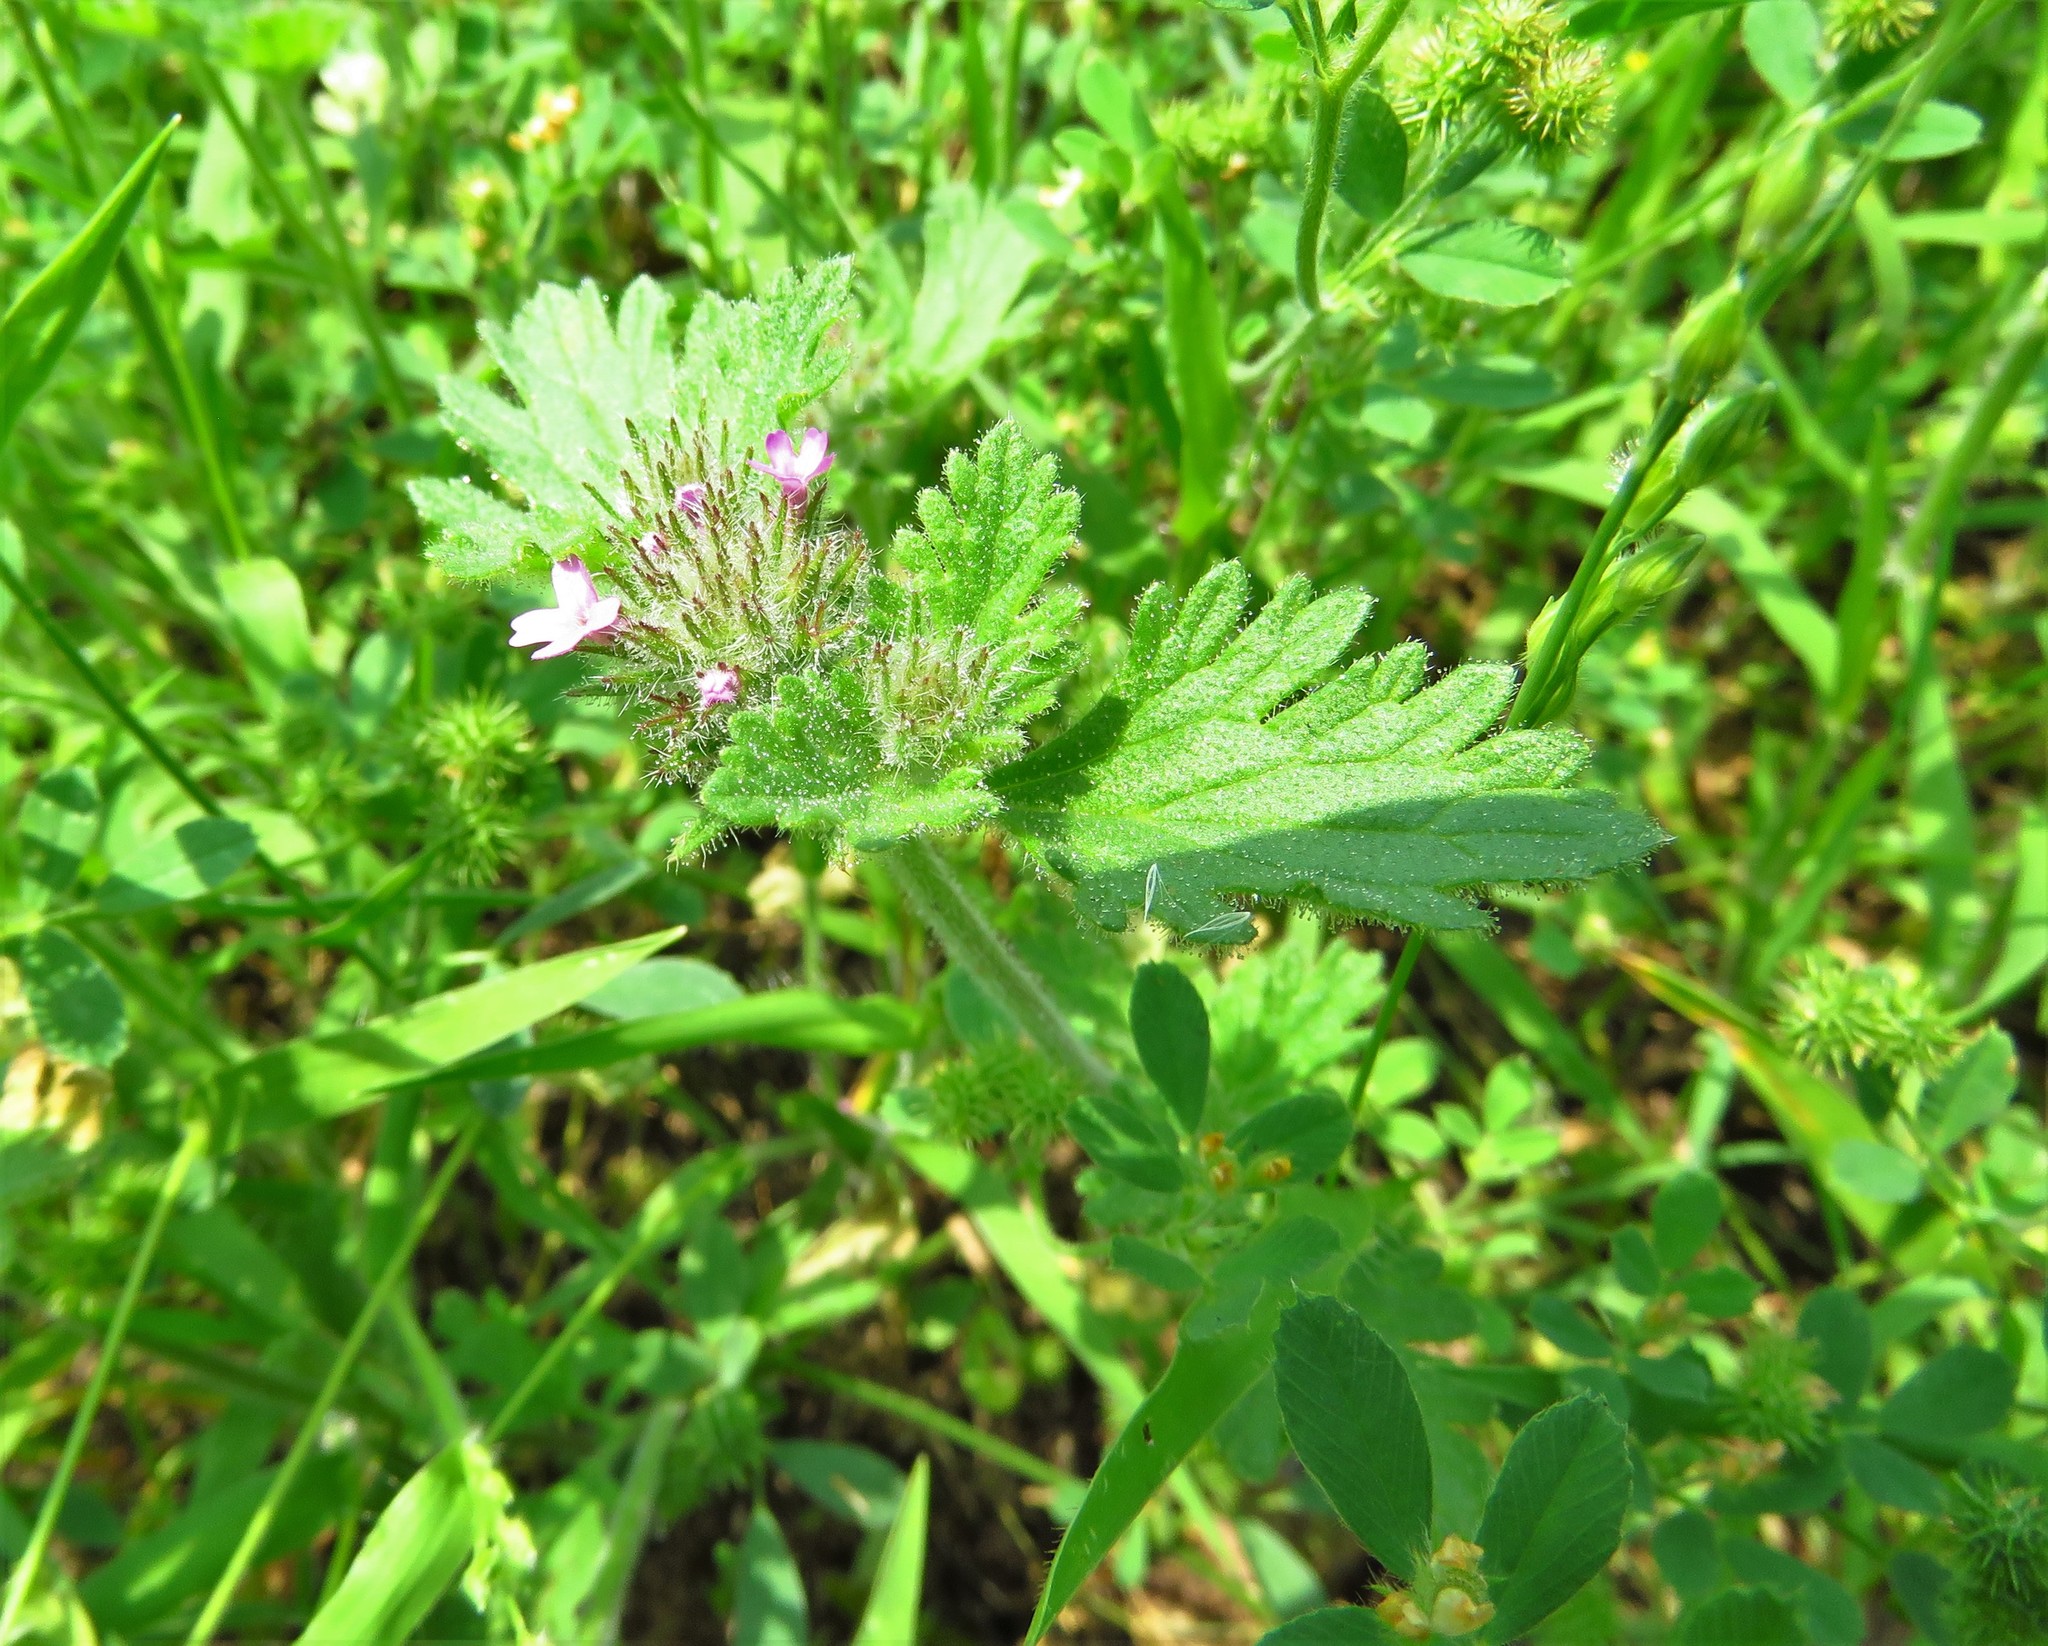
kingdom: Plantae
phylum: Tracheophyta
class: Magnoliopsida
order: Lamiales
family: Verbenaceae
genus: Verbena
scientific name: Verbena pumila
